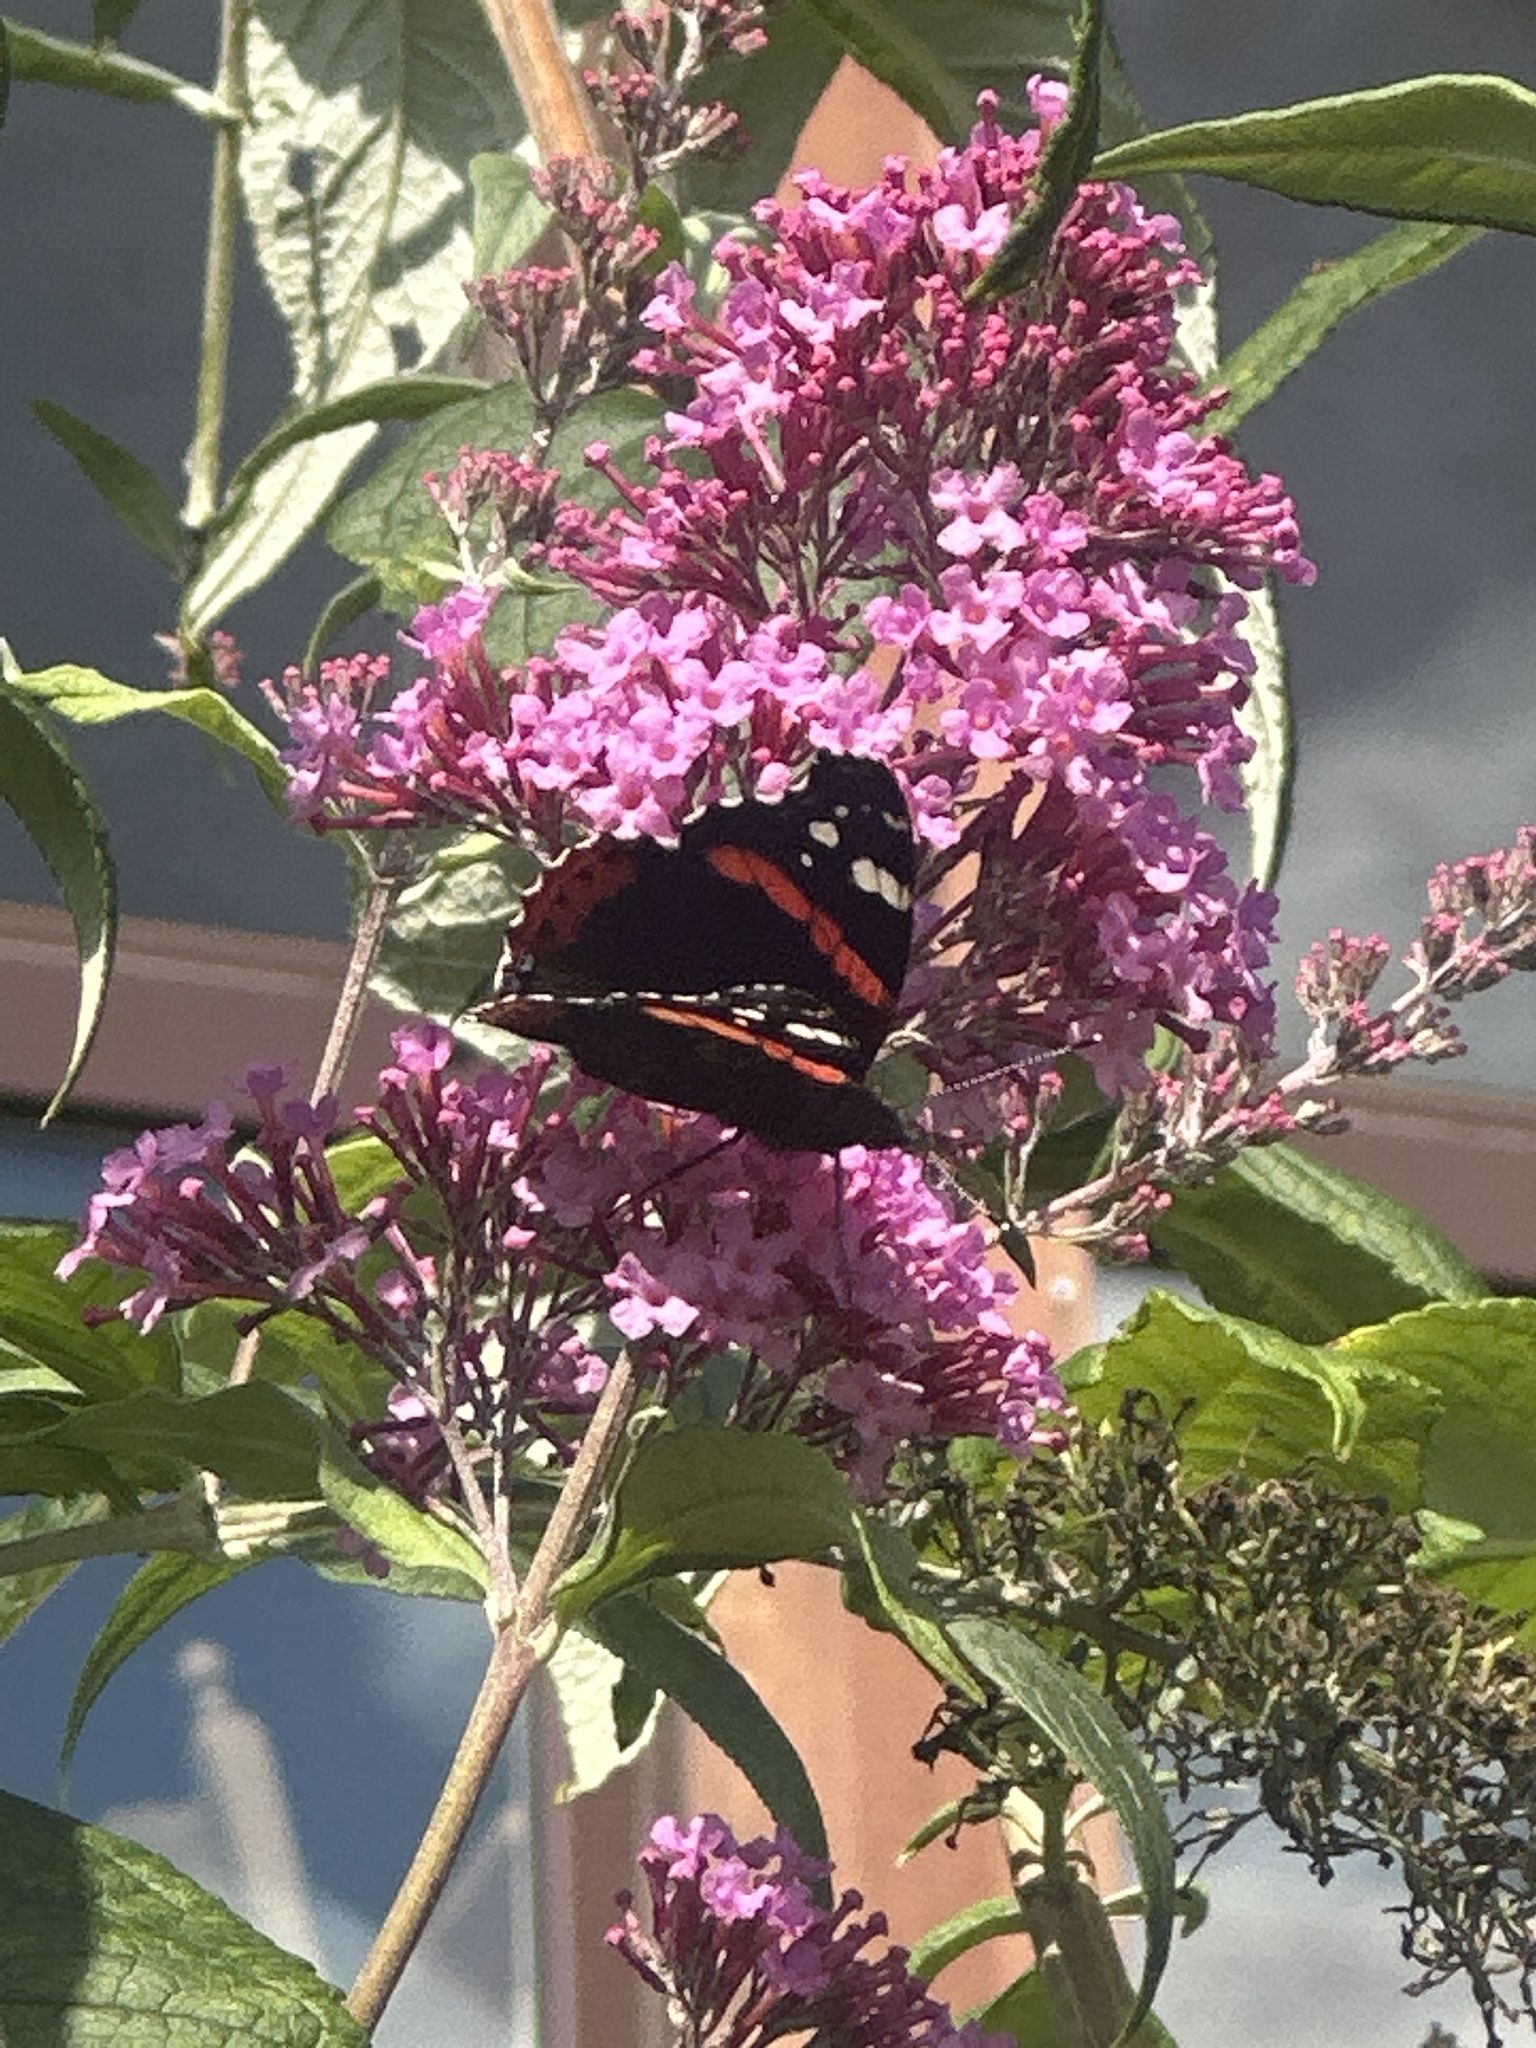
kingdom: Animalia
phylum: Arthropoda
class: Insecta
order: Lepidoptera
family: Nymphalidae
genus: Vanessa
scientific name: Vanessa atalanta
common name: Red admiral
